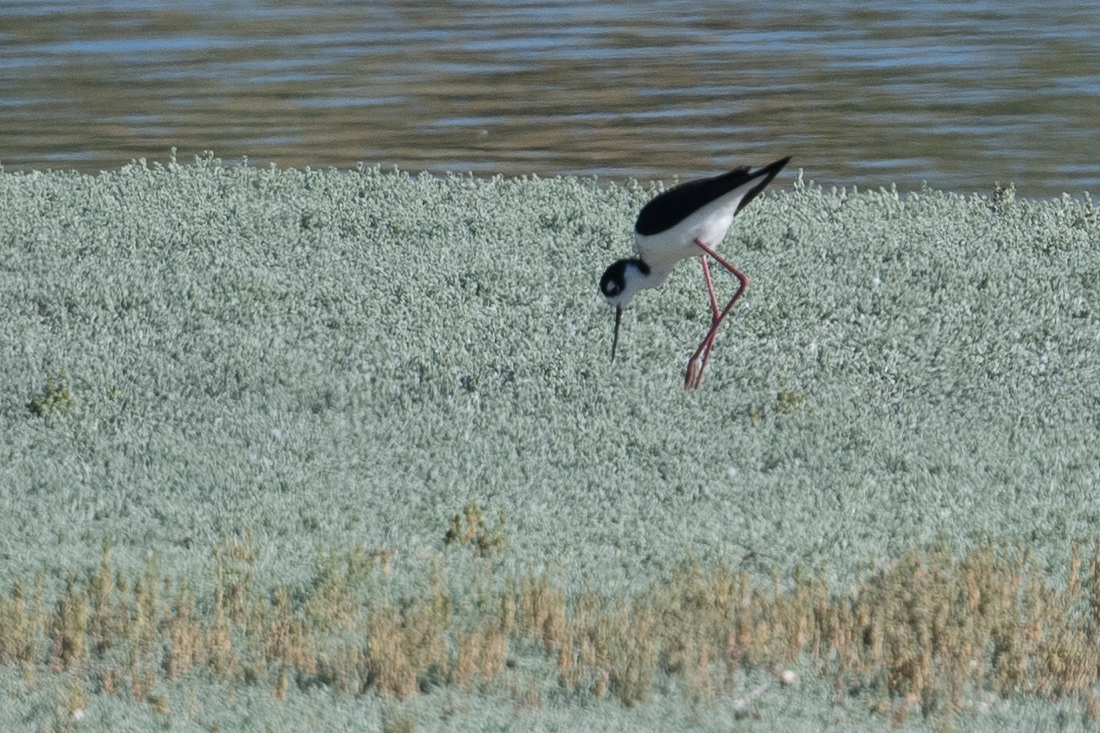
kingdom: Animalia
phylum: Chordata
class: Aves
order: Charadriiformes
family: Recurvirostridae
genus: Himantopus
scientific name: Himantopus mexicanus
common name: Black-necked stilt
